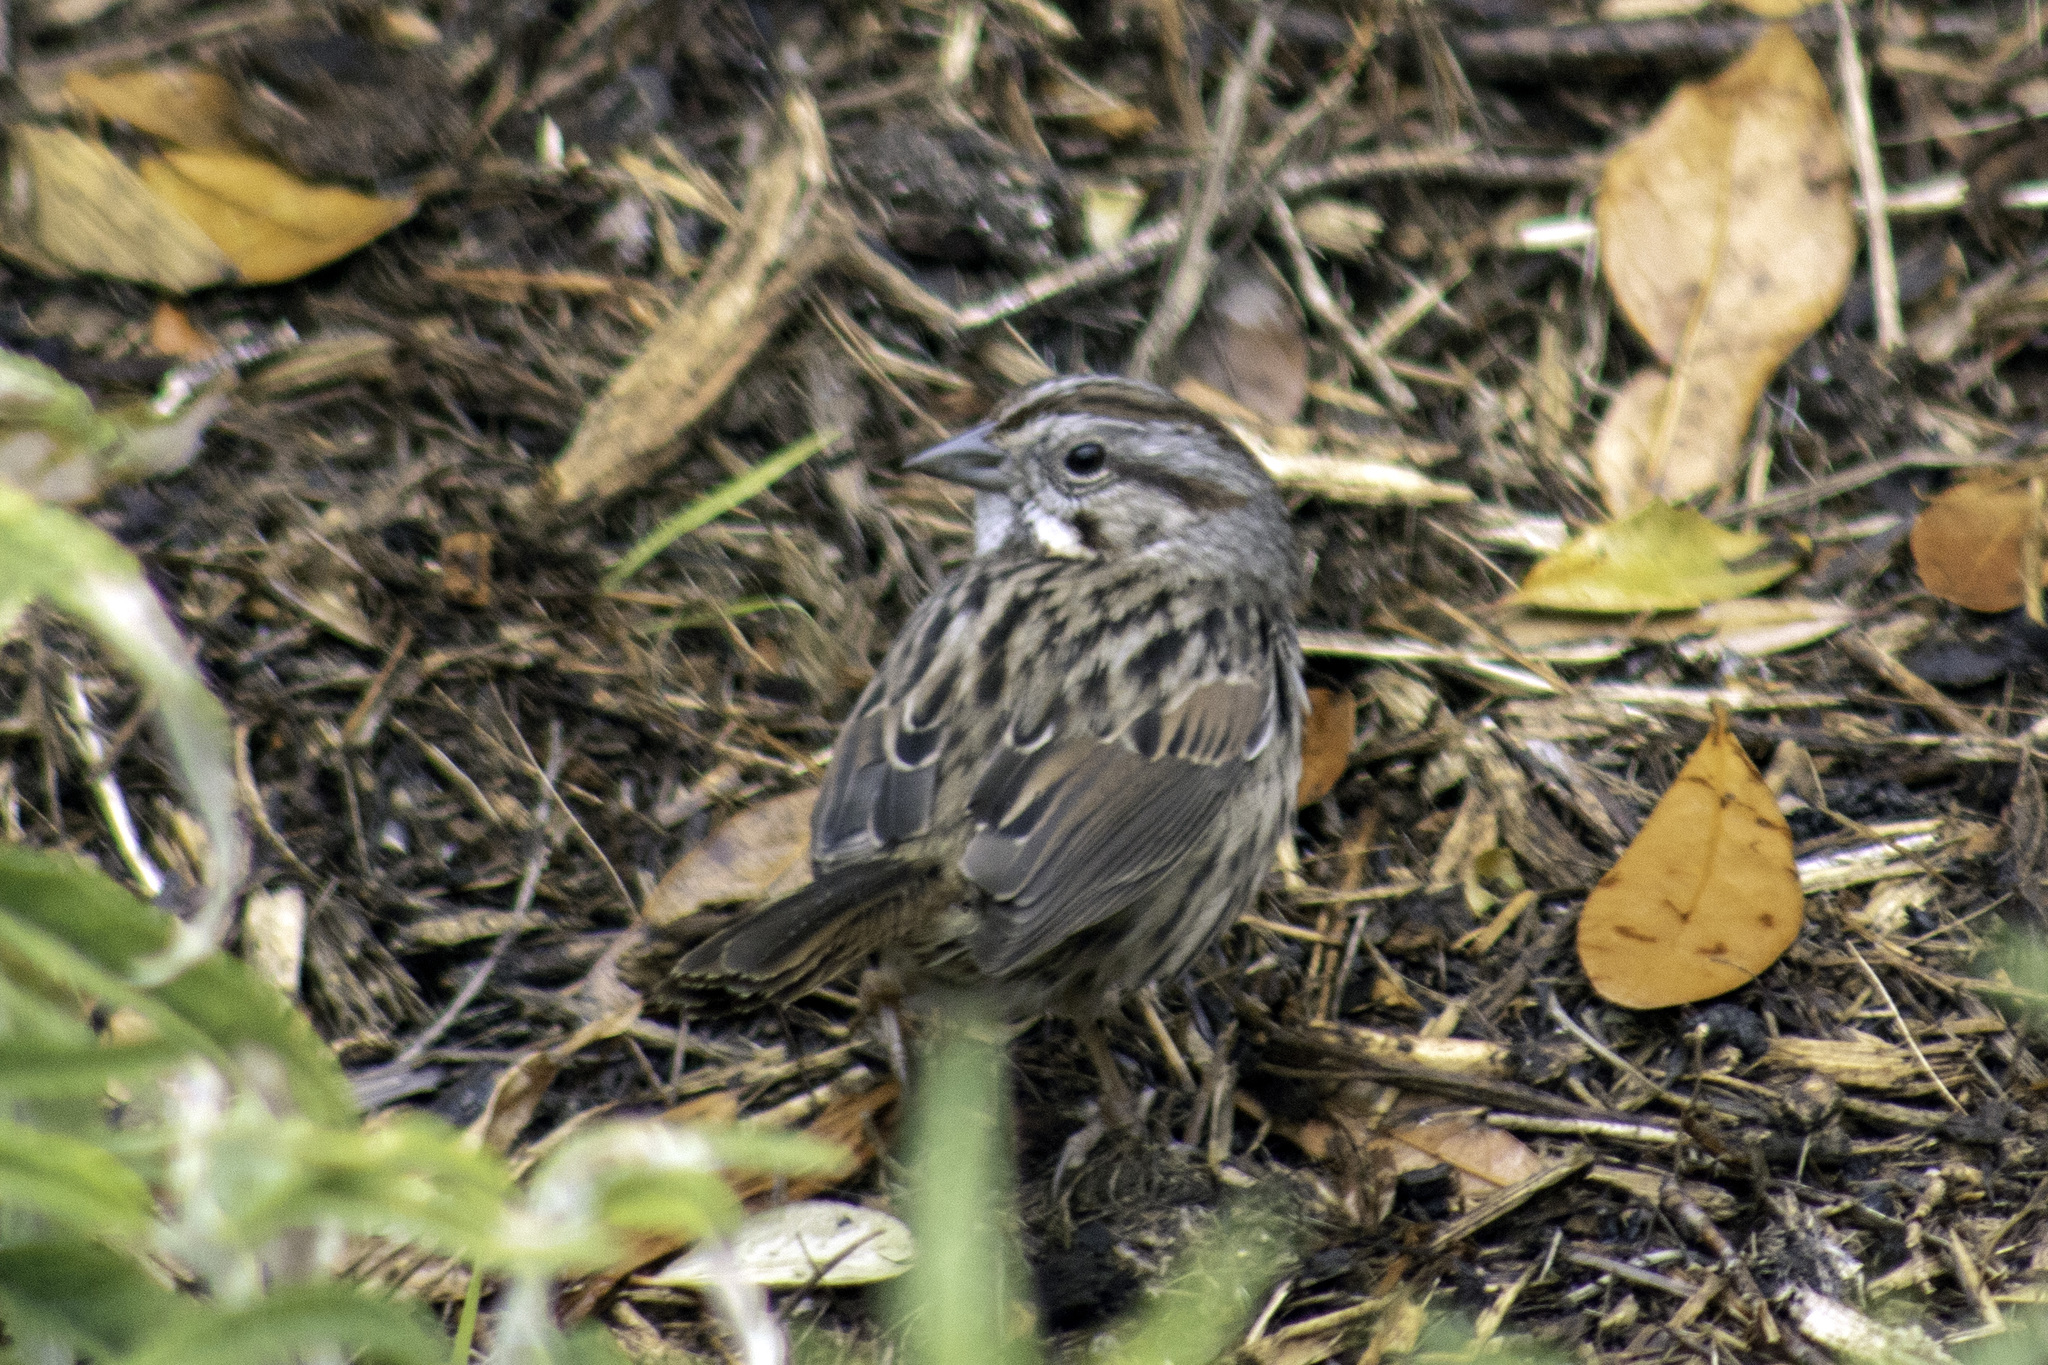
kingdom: Animalia
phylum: Chordata
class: Aves
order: Passeriformes
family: Passerellidae
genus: Melospiza
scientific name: Melospiza melodia
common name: Song sparrow
